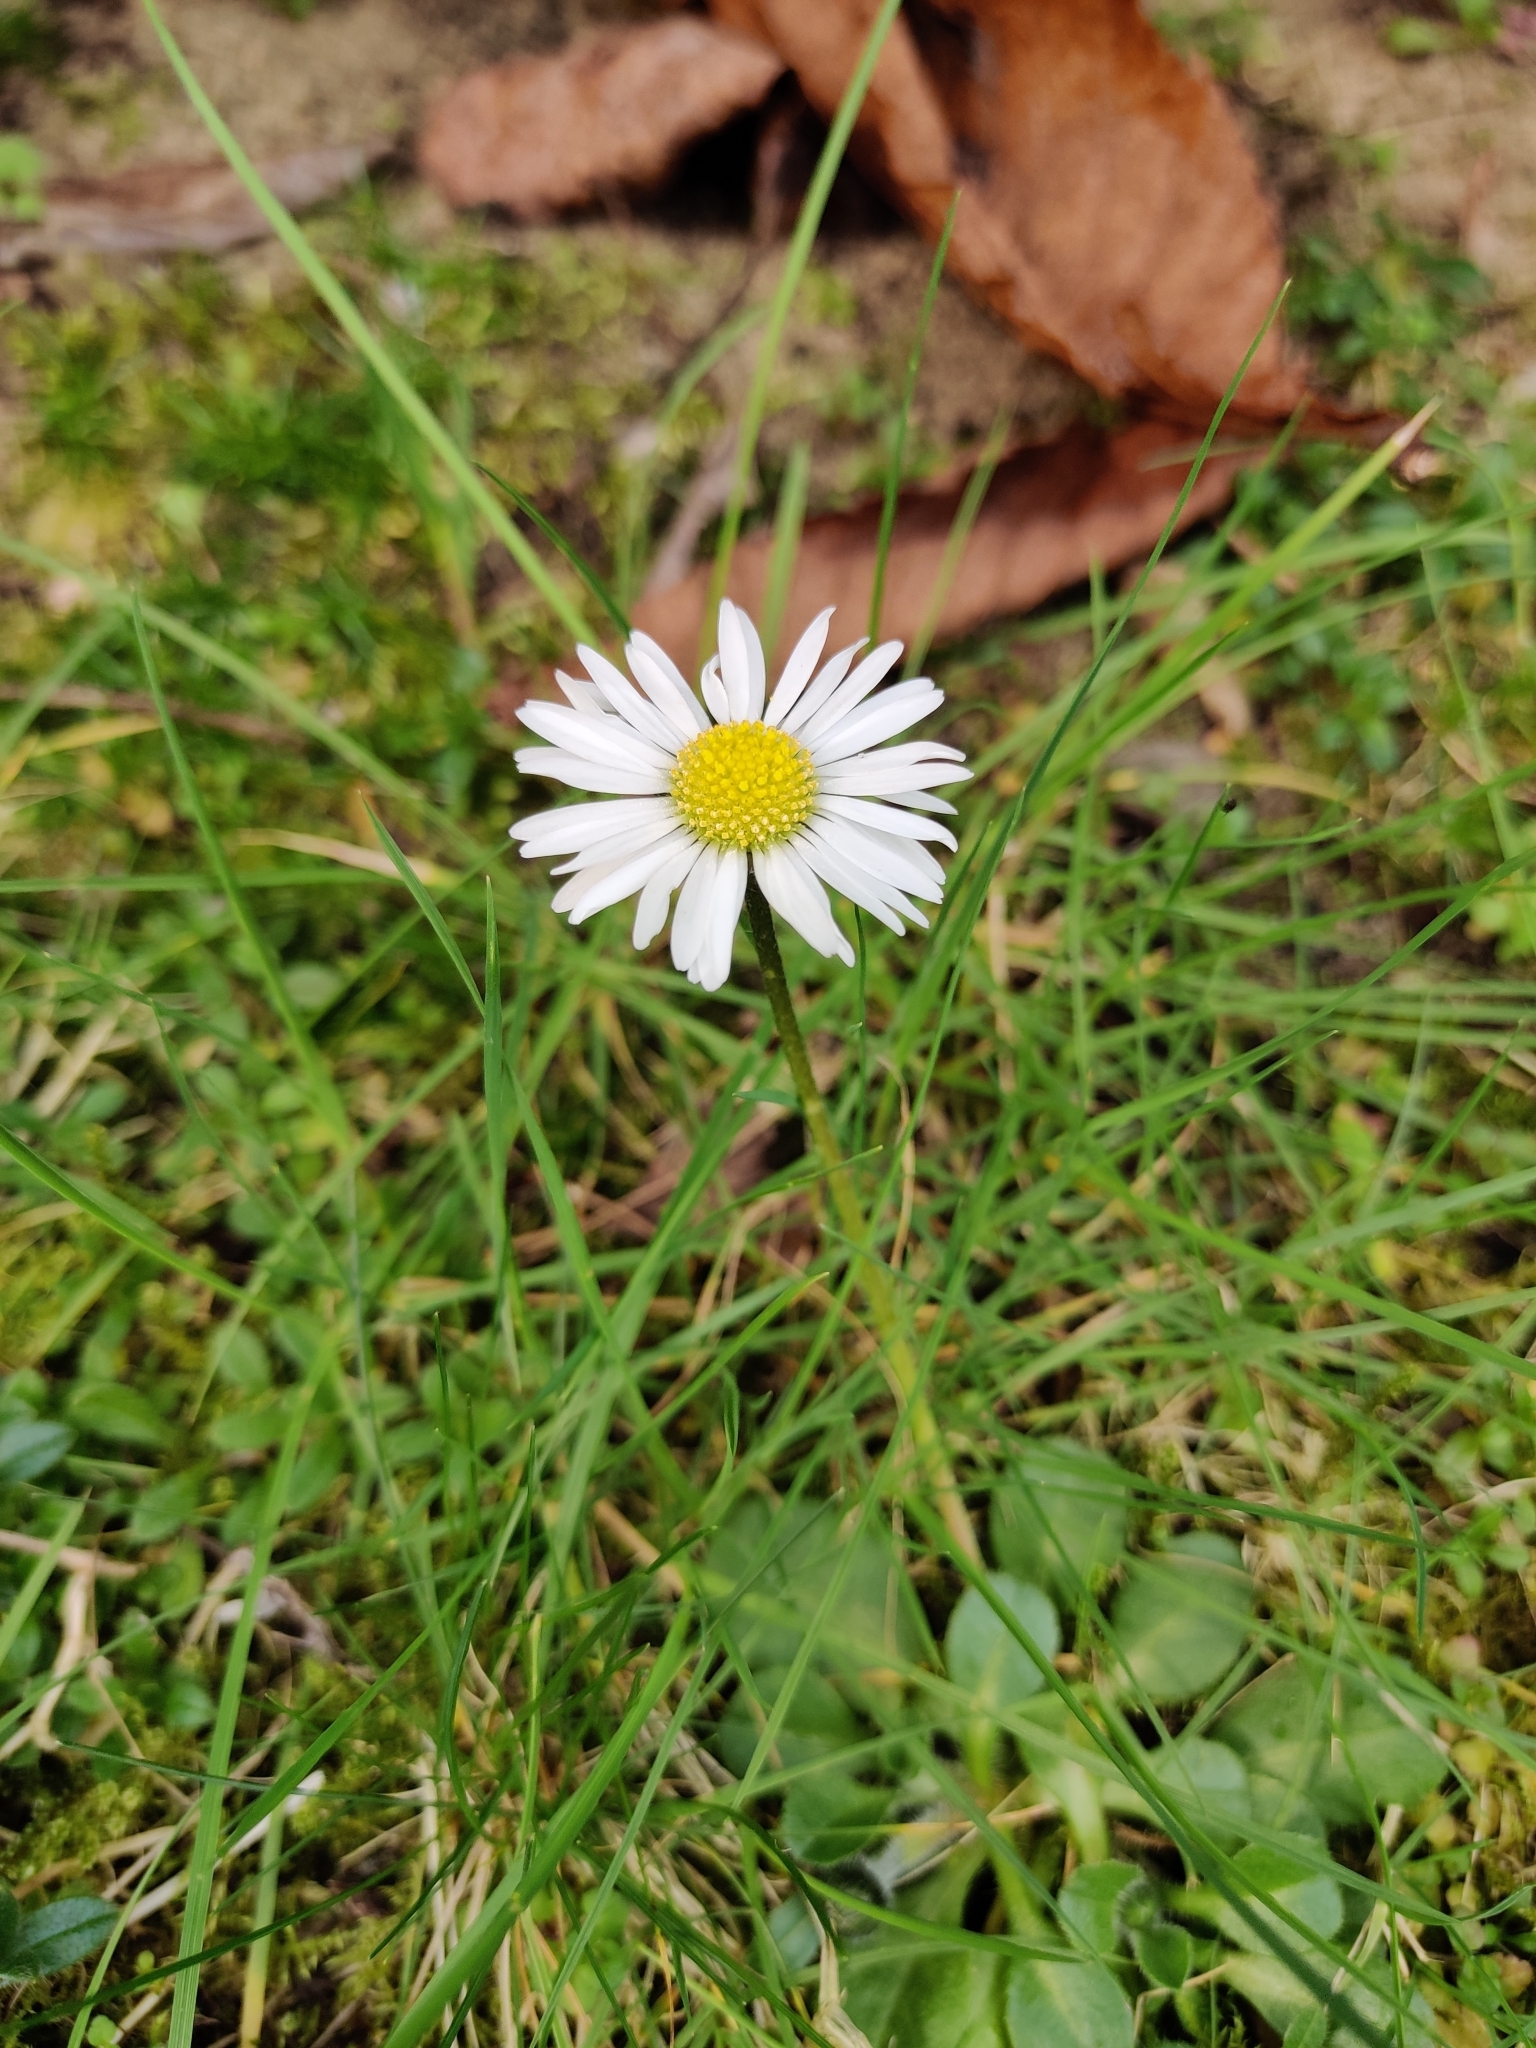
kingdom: Plantae
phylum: Tracheophyta
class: Magnoliopsida
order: Asterales
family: Asteraceae
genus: Bellis
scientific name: Bellis perennis
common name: Lawndaisy
